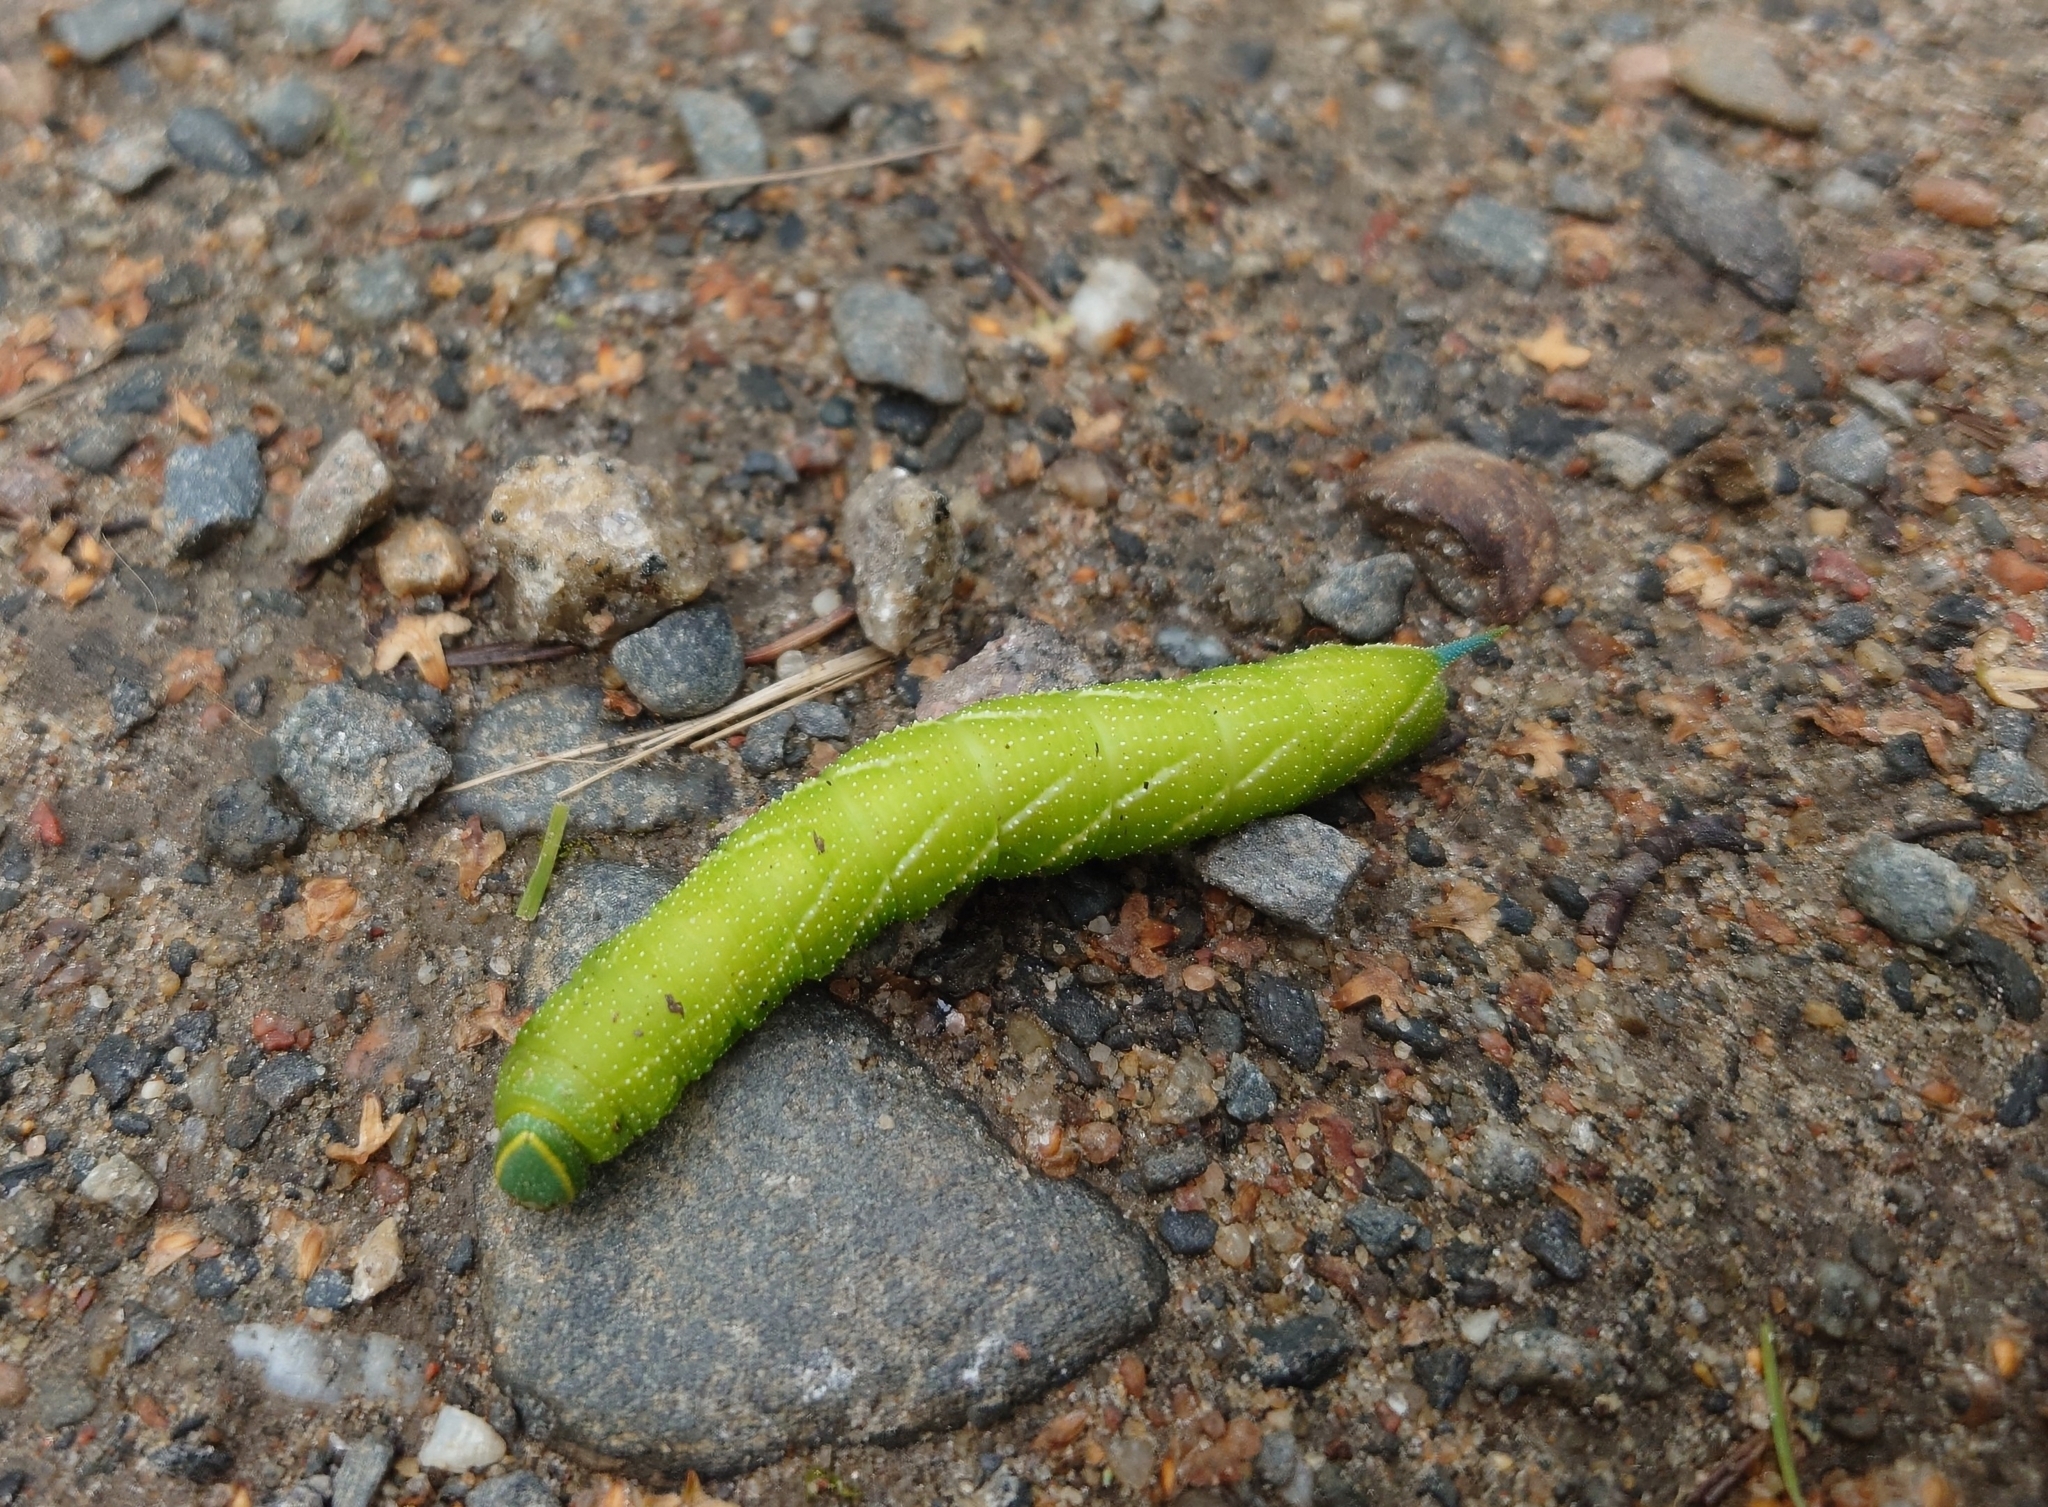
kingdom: Animalia
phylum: Arthropoda
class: Insecta
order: Lepidoptera
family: Sphingidae
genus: Smerinthus
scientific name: Smerinthus ocellata
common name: Eyed hawk-moth
